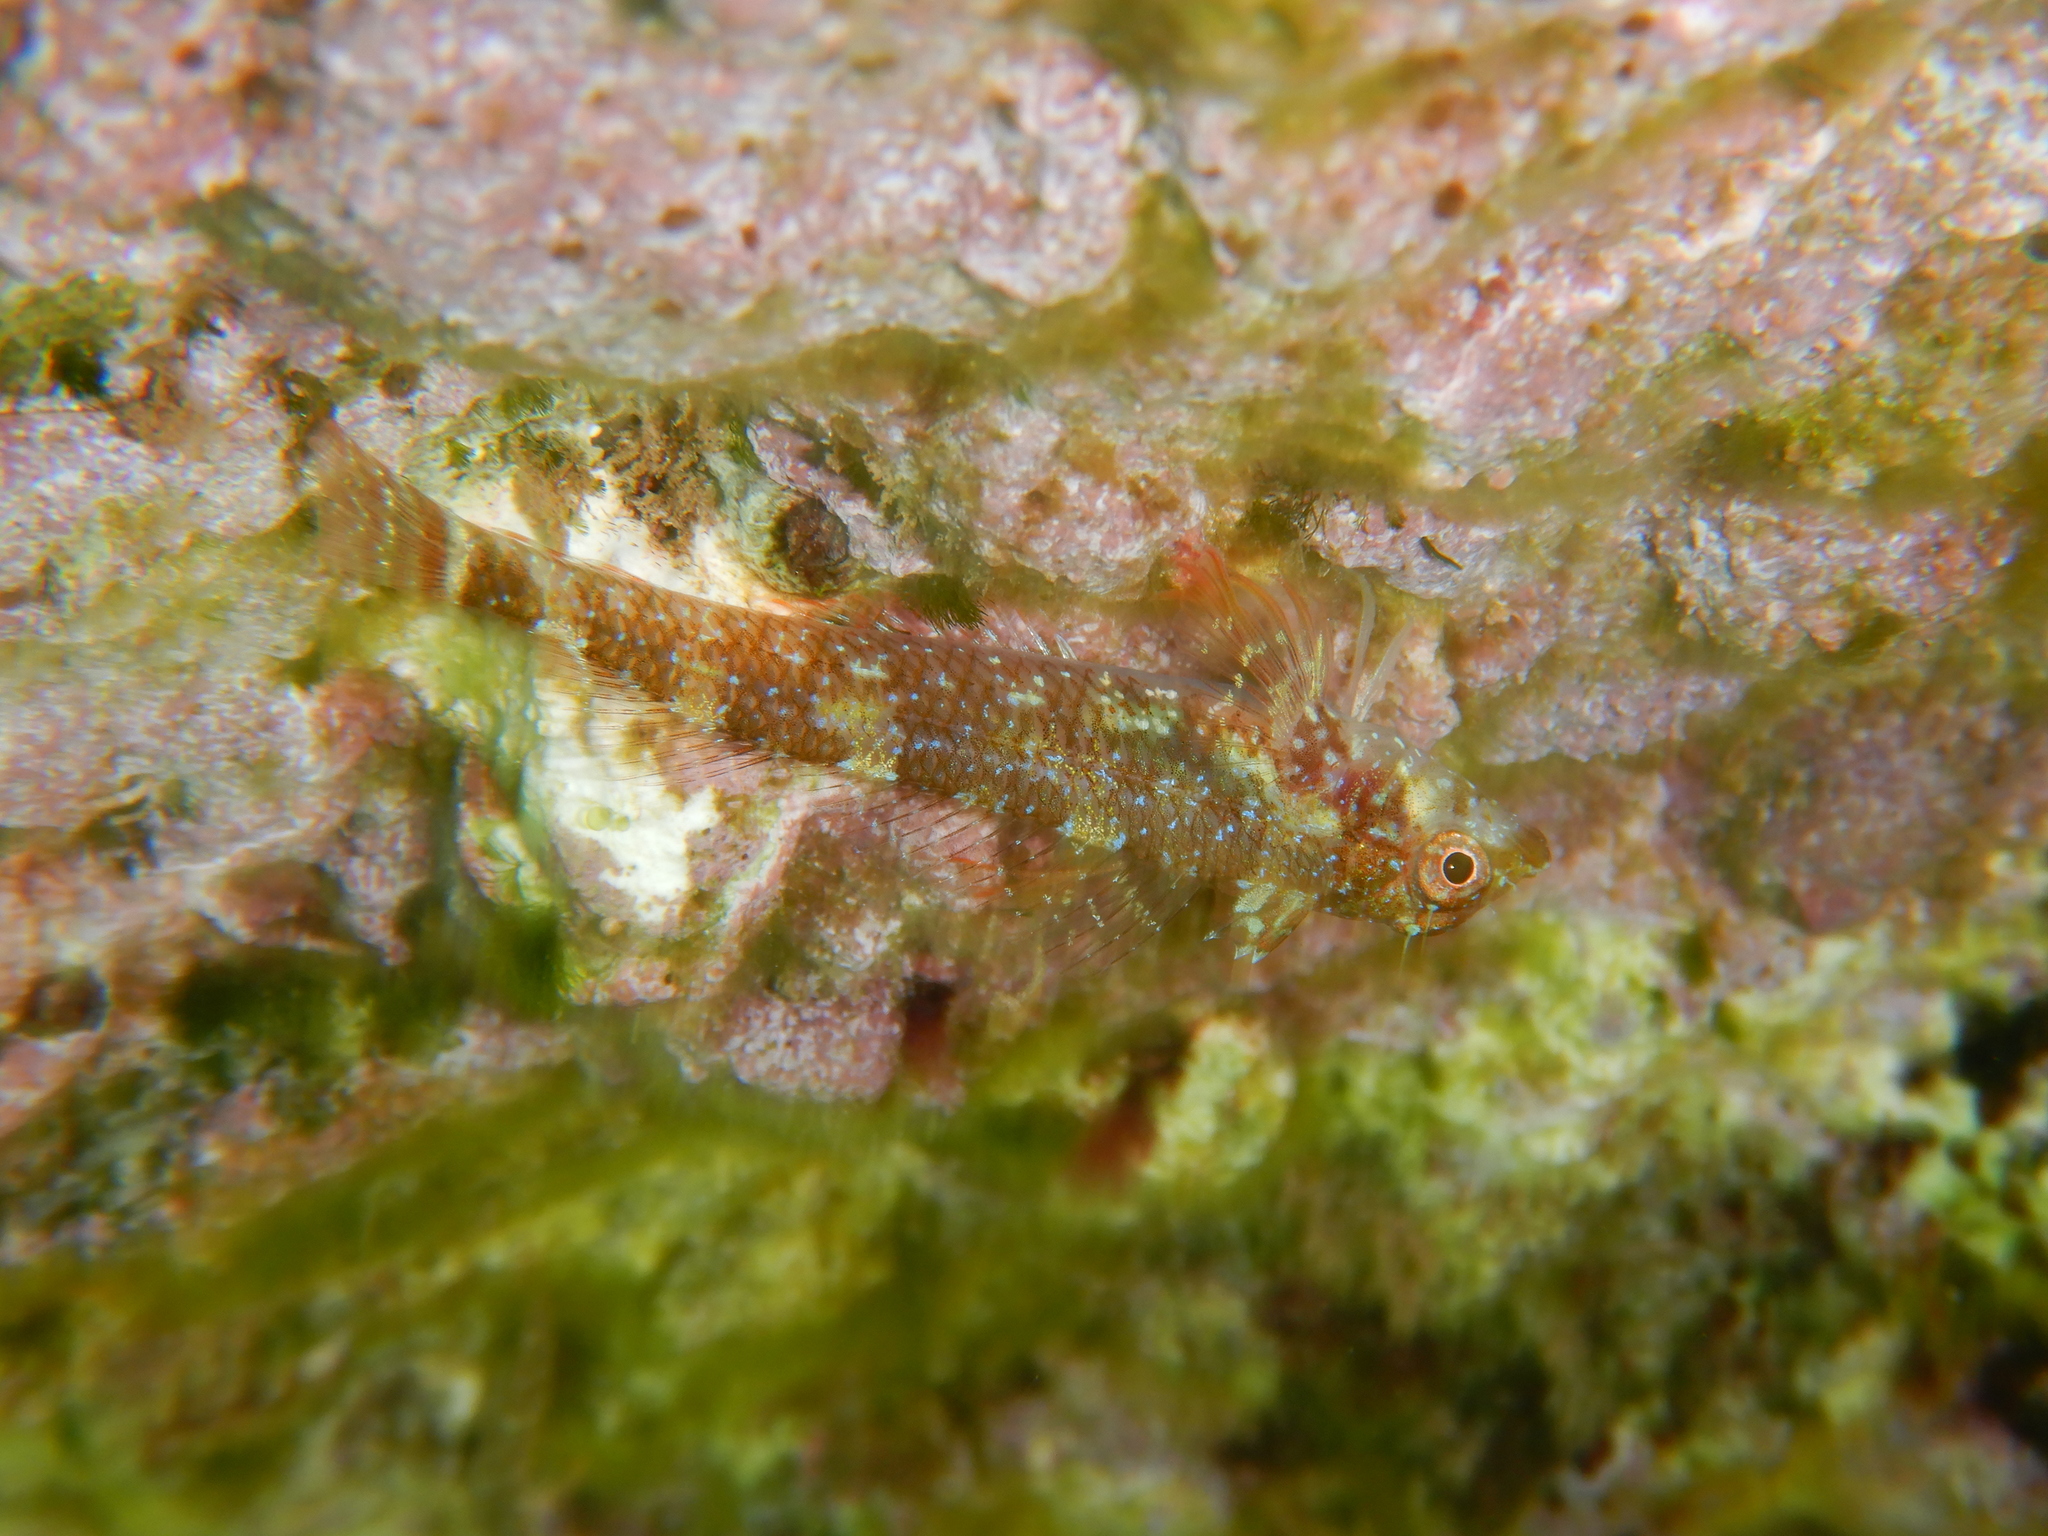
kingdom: Animalia
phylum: Chordata
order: Perciformes
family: Tripterygiidae
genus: Tripterygion
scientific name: Tripterygion tripteronotum
